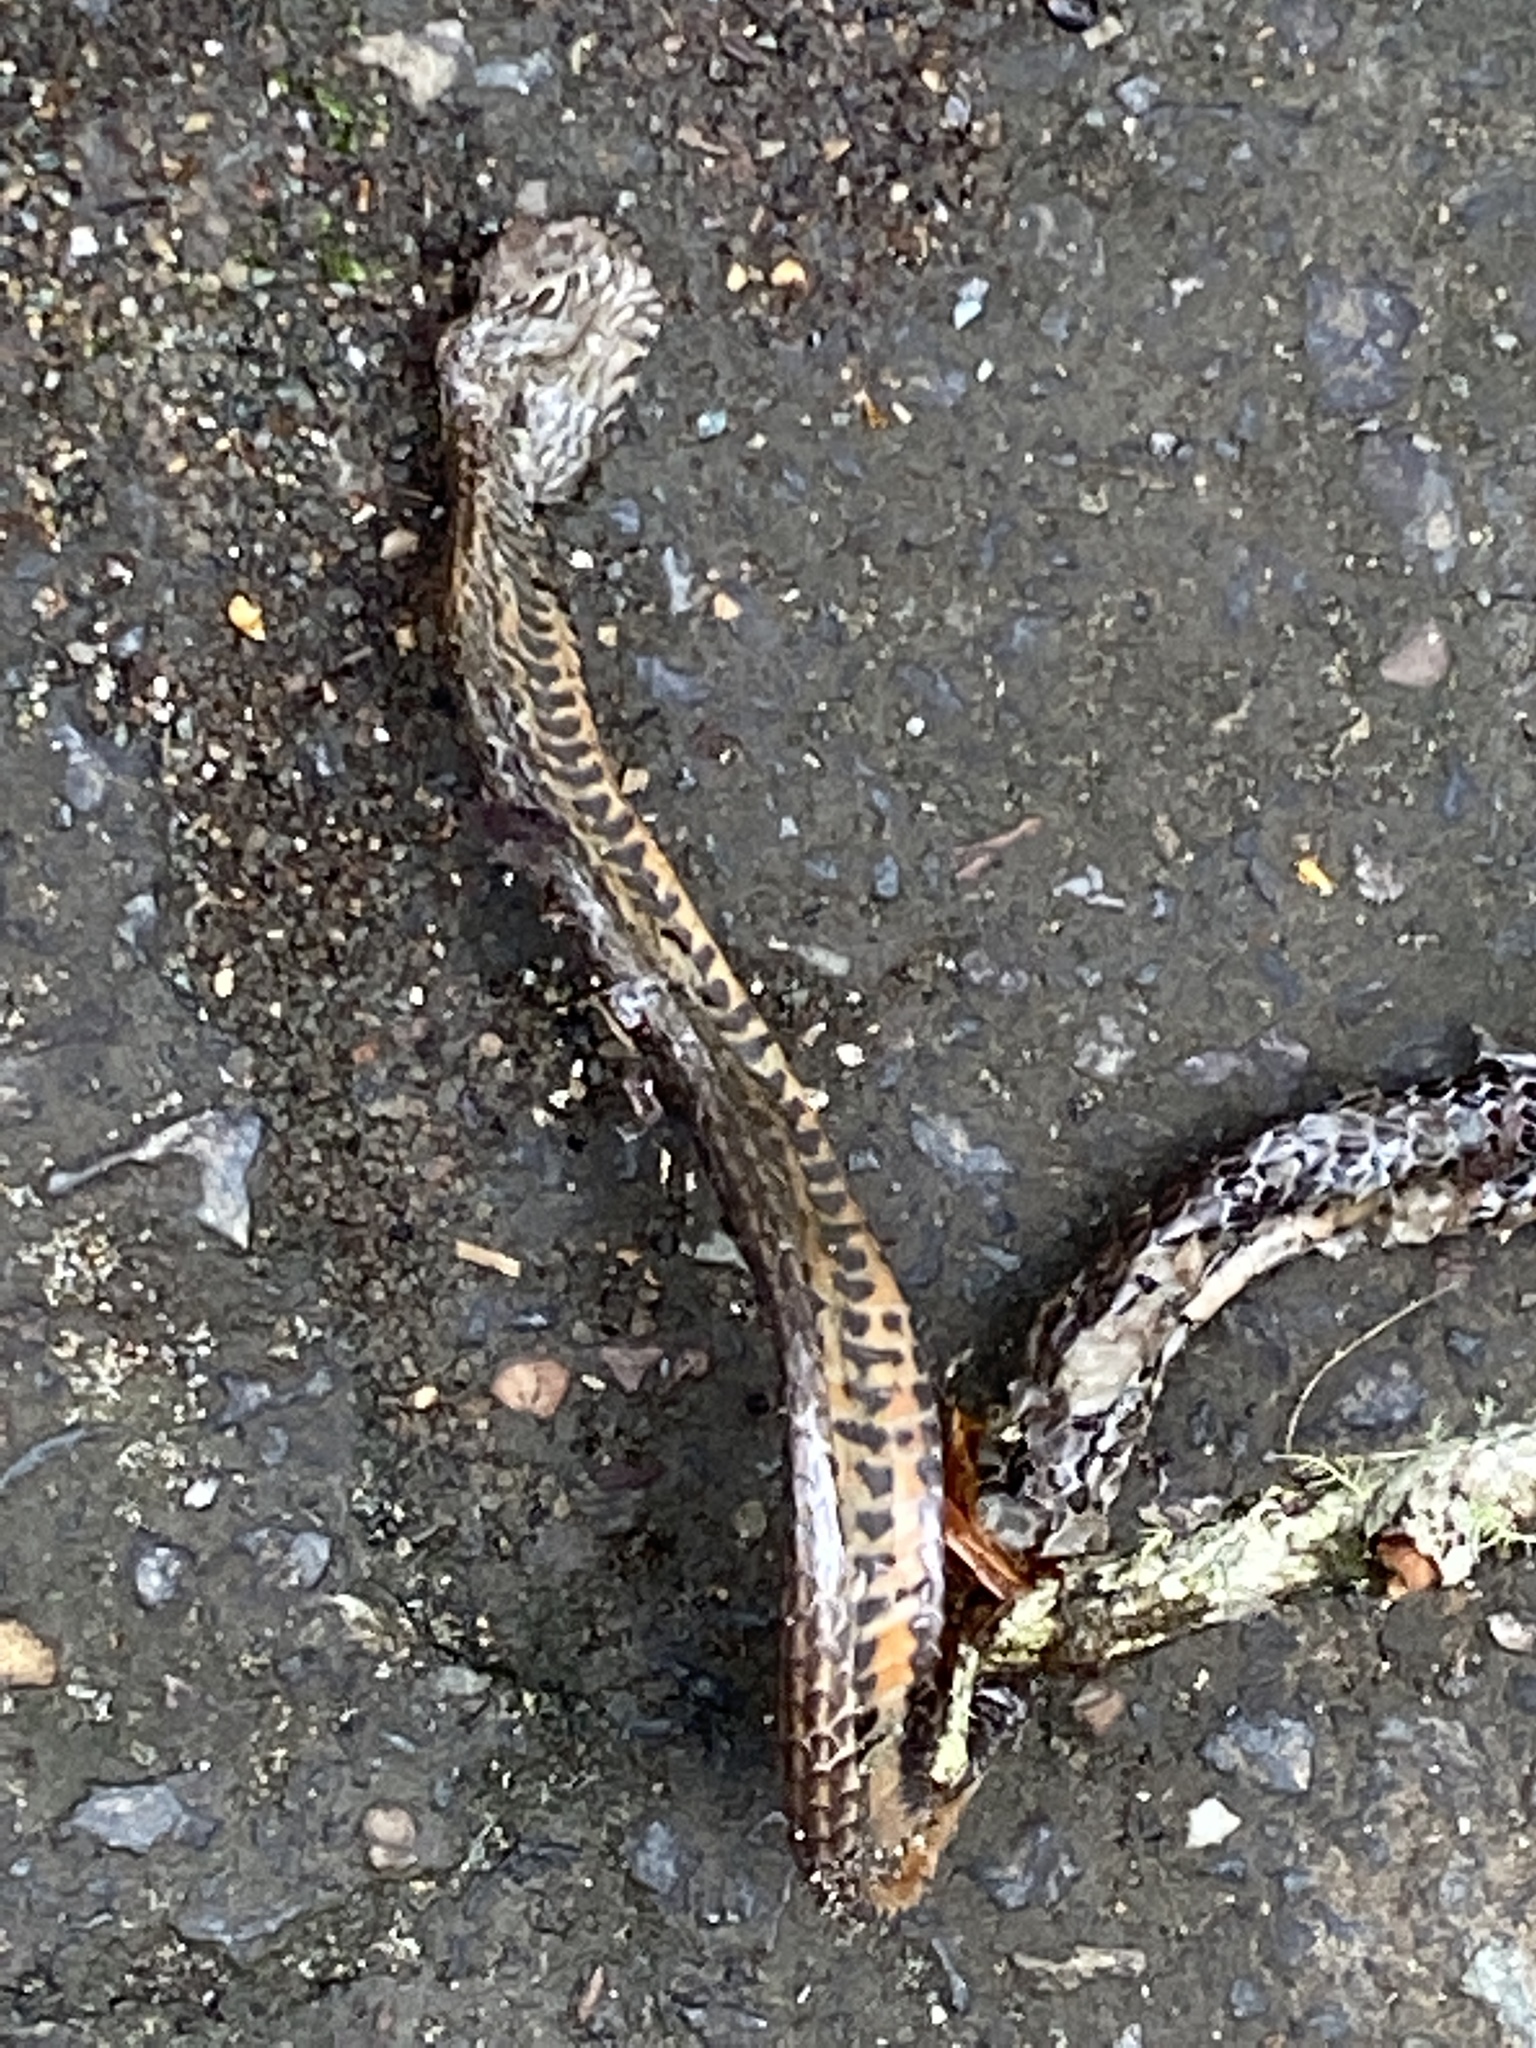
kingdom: Animalia
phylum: Chordata
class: Squamata
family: Elapidae
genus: Cacophis
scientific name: Cacophis squamulosus
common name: Golden crowned snake
